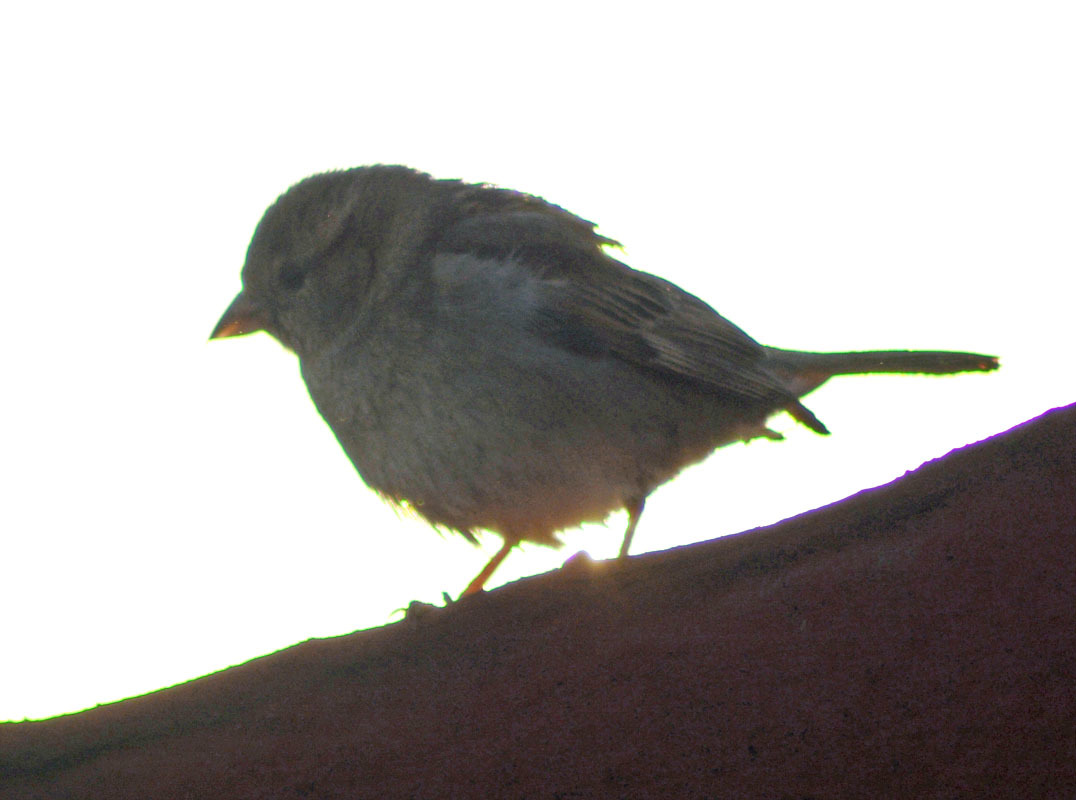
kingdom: Animalia
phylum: Chordata
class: Aves
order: Passeriformes
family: Passeridae
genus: Passer
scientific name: Passer domesticus
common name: House sparrow
